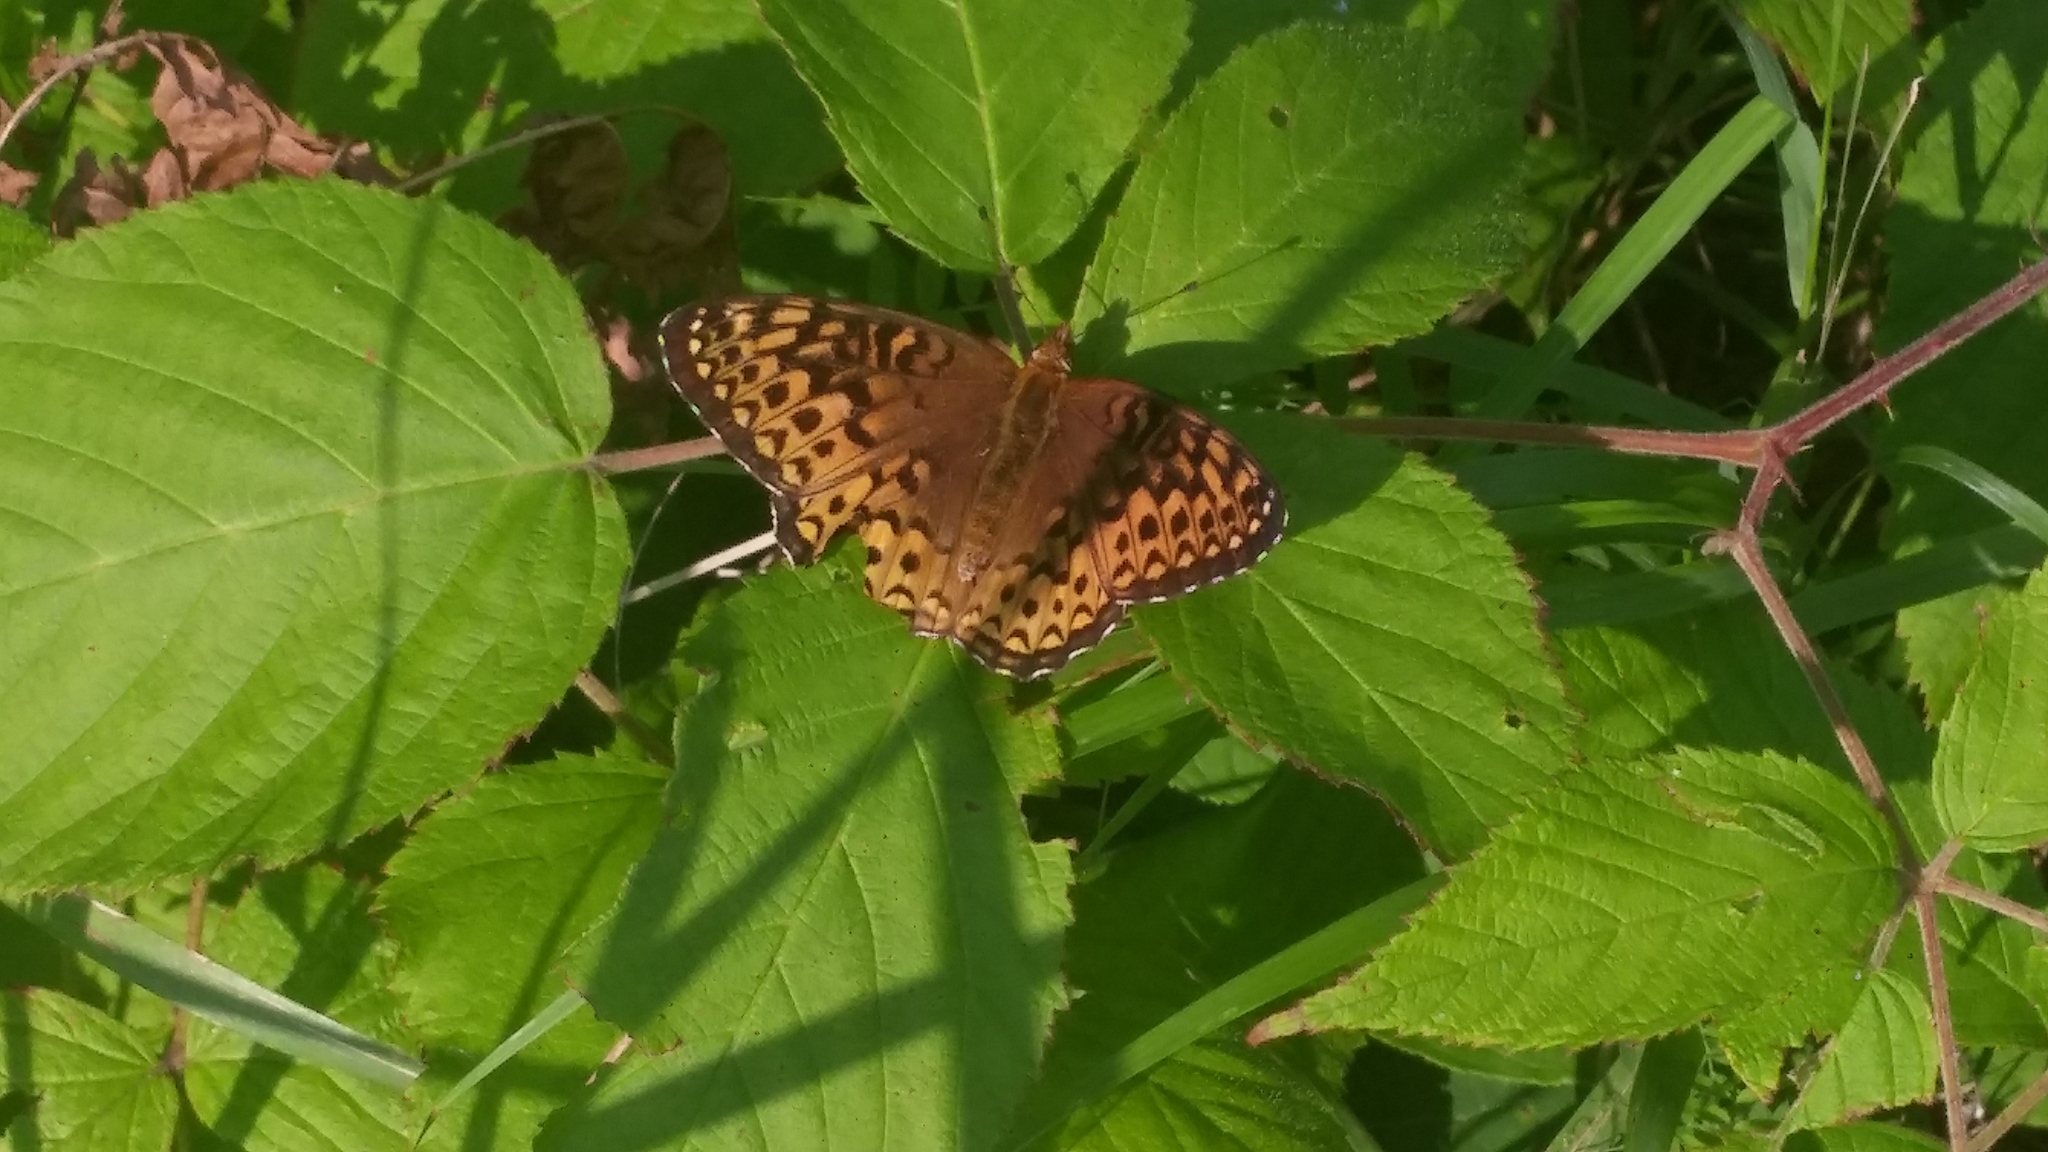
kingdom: Animalia
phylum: Arthropoda
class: Insecta
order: Lepidoptera
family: Nymphalidae
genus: Speyeria
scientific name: Speyeria atlantis
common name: Atlantis fritillary
